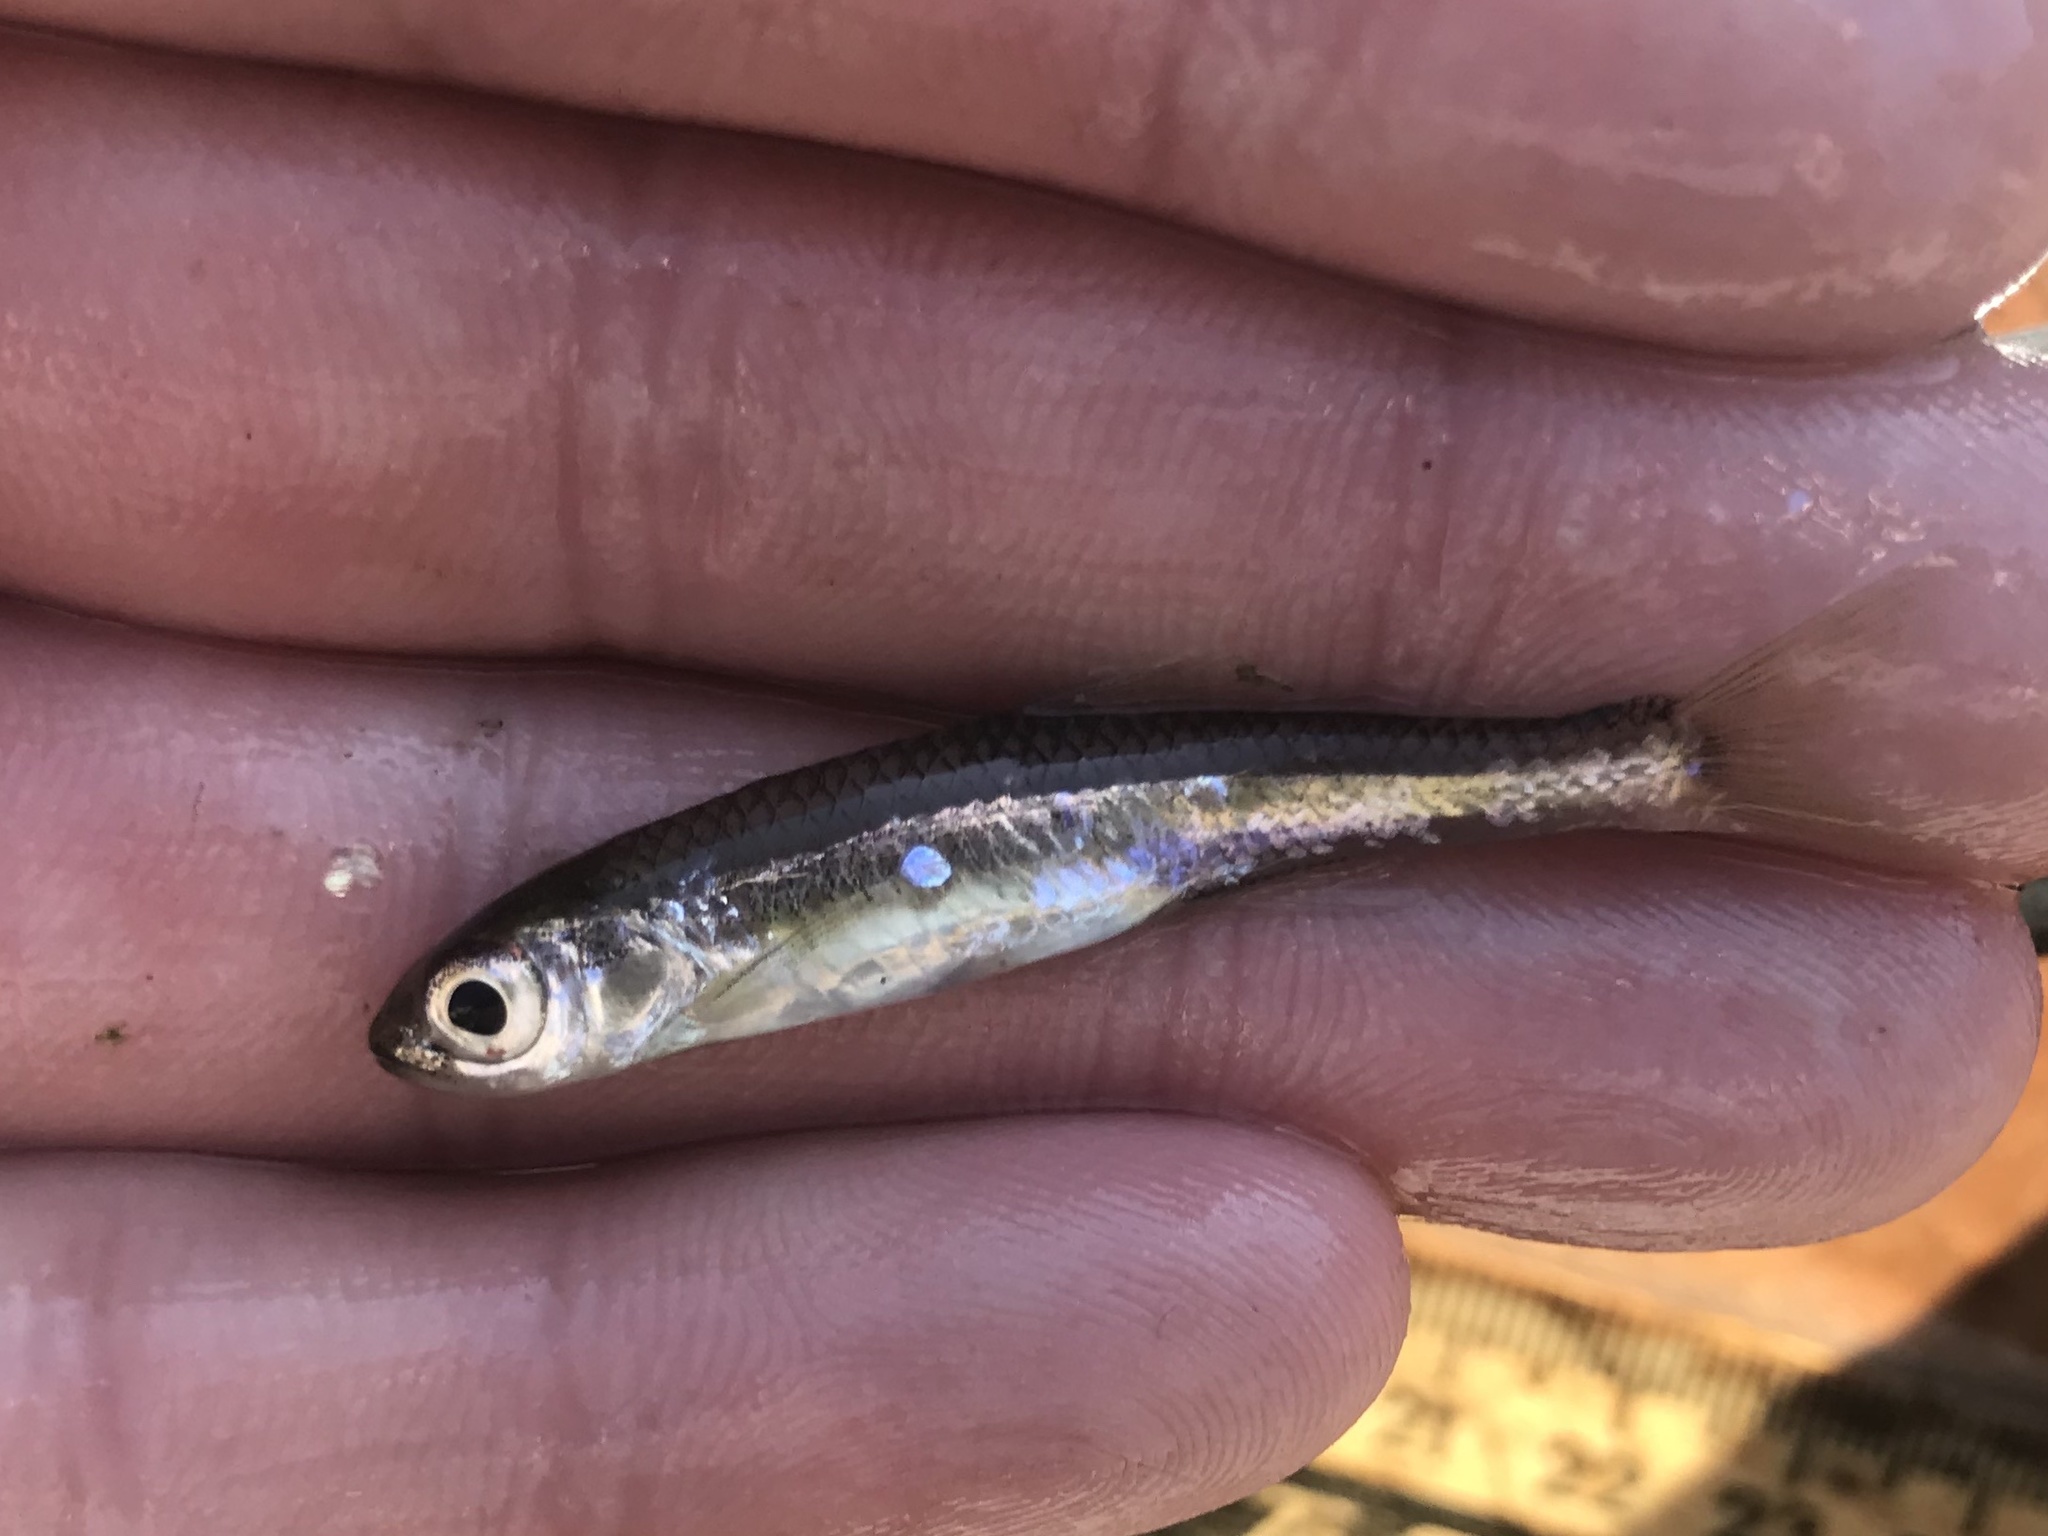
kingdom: Animalia
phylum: Chordata
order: Cypriniformes
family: Cyprinidae
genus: Notropis
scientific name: Notropis amabilis
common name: Texas shiner
